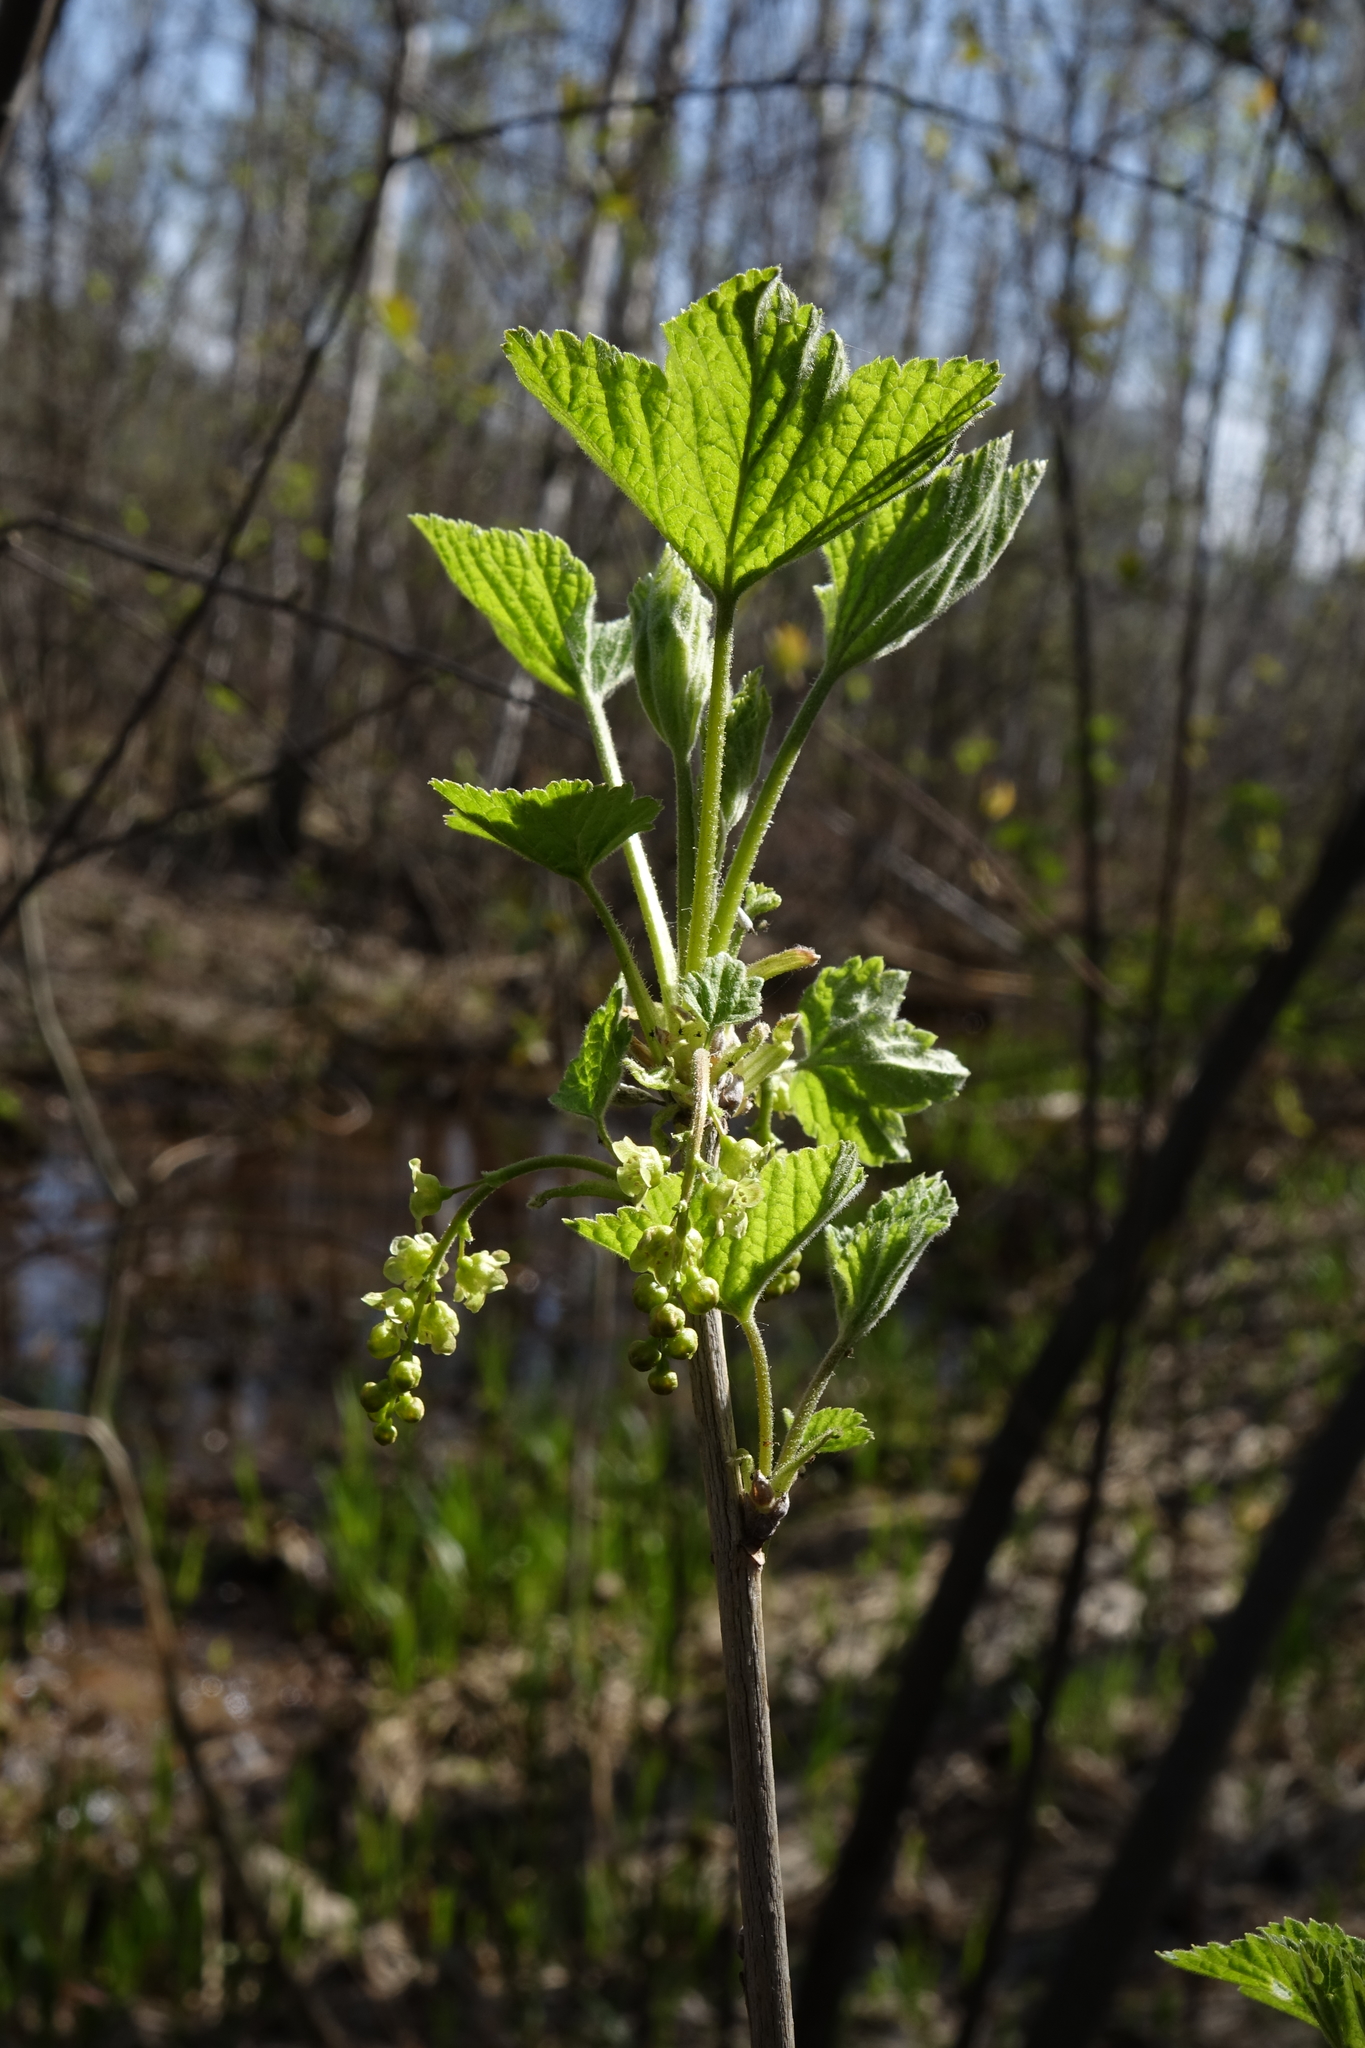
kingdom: Plantae
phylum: Tracheophyta
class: Magnoliopsida
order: Saxifragales
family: Grossulariaceae
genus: Ribes
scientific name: Ribes spicatum
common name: Downy currant
